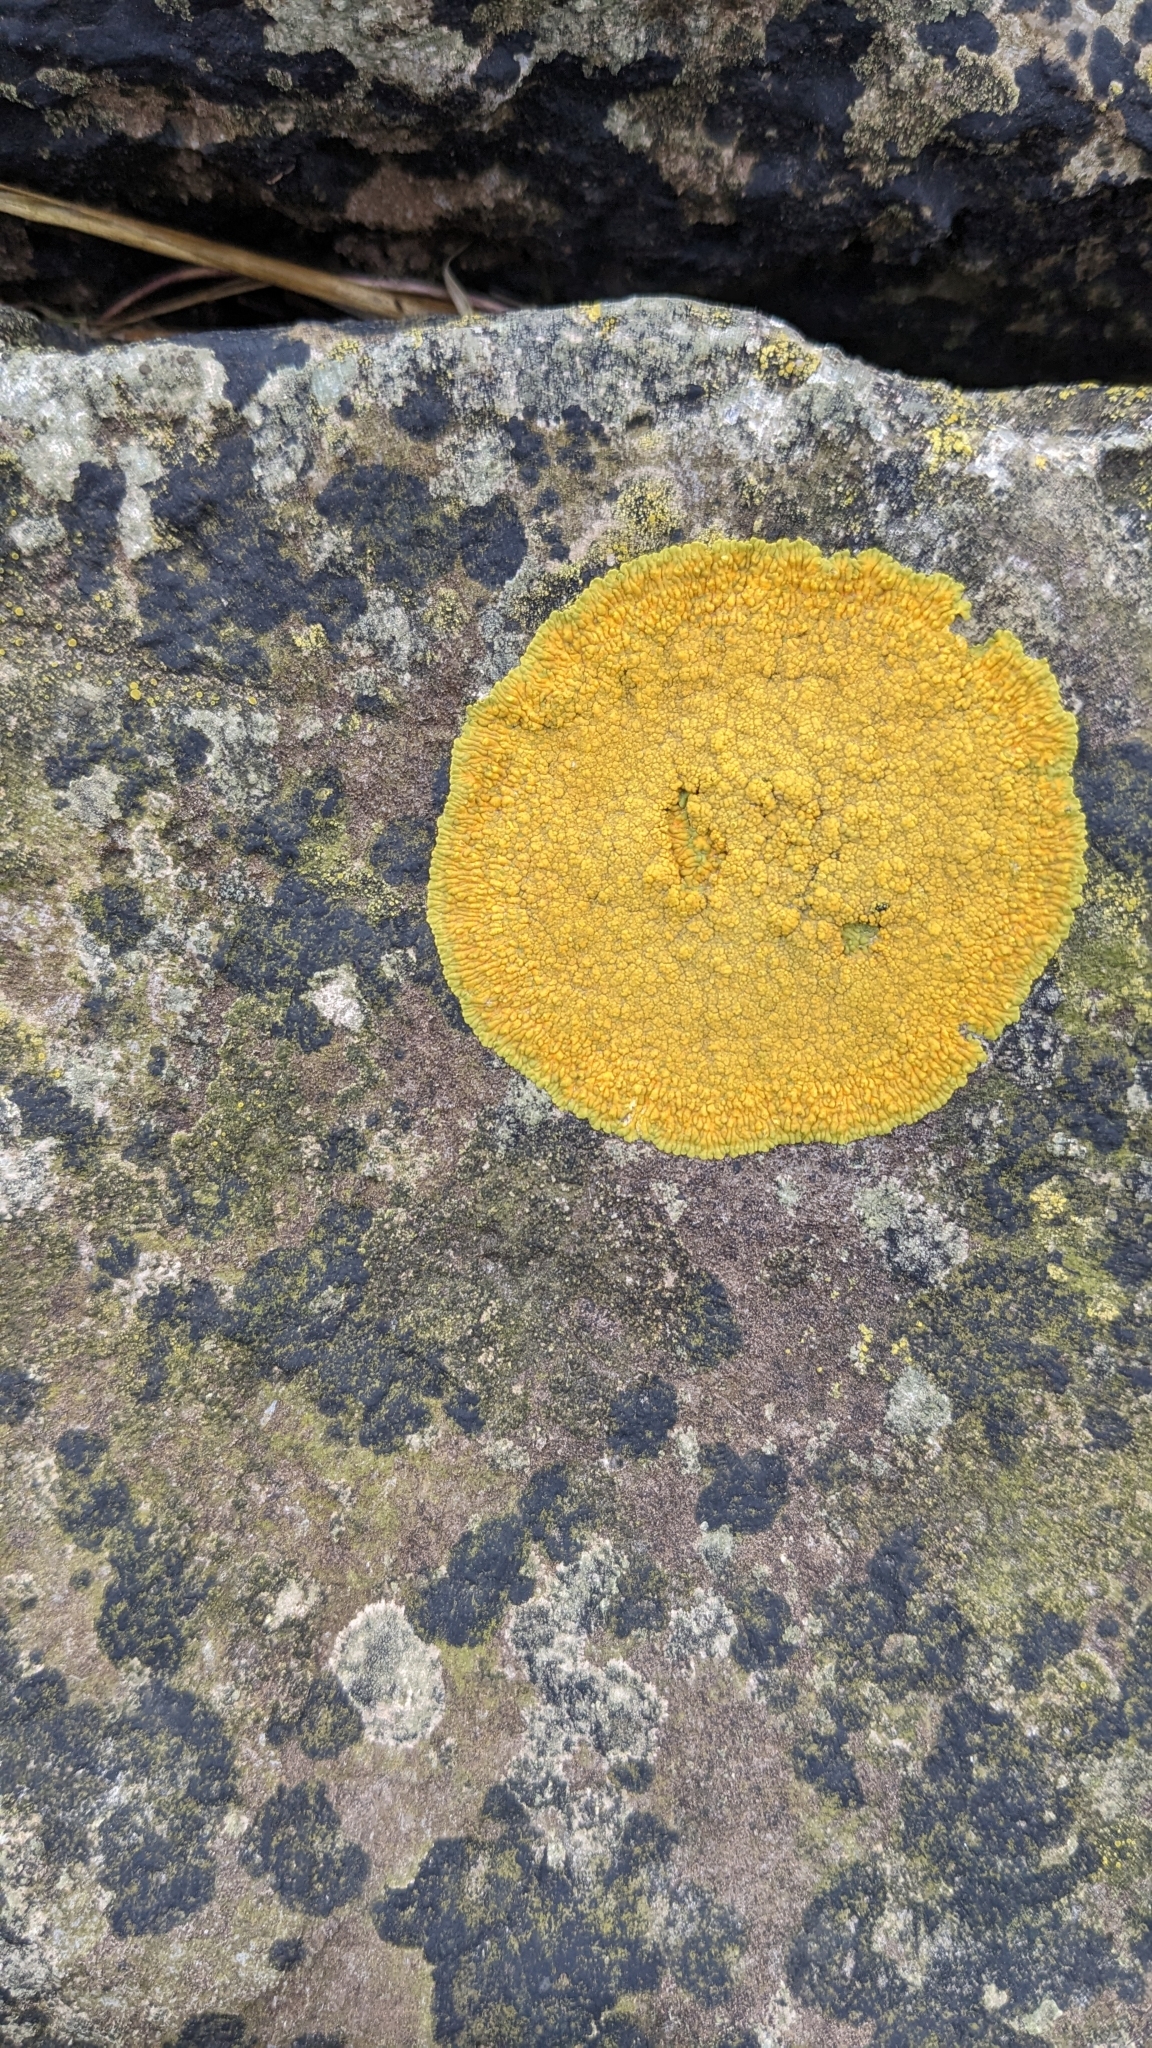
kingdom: Fungi
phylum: Ascomycota
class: Lecanoromycetes
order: Teloschistales
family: Teloschistaceae
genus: Variospora
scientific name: Variospora thallincola
